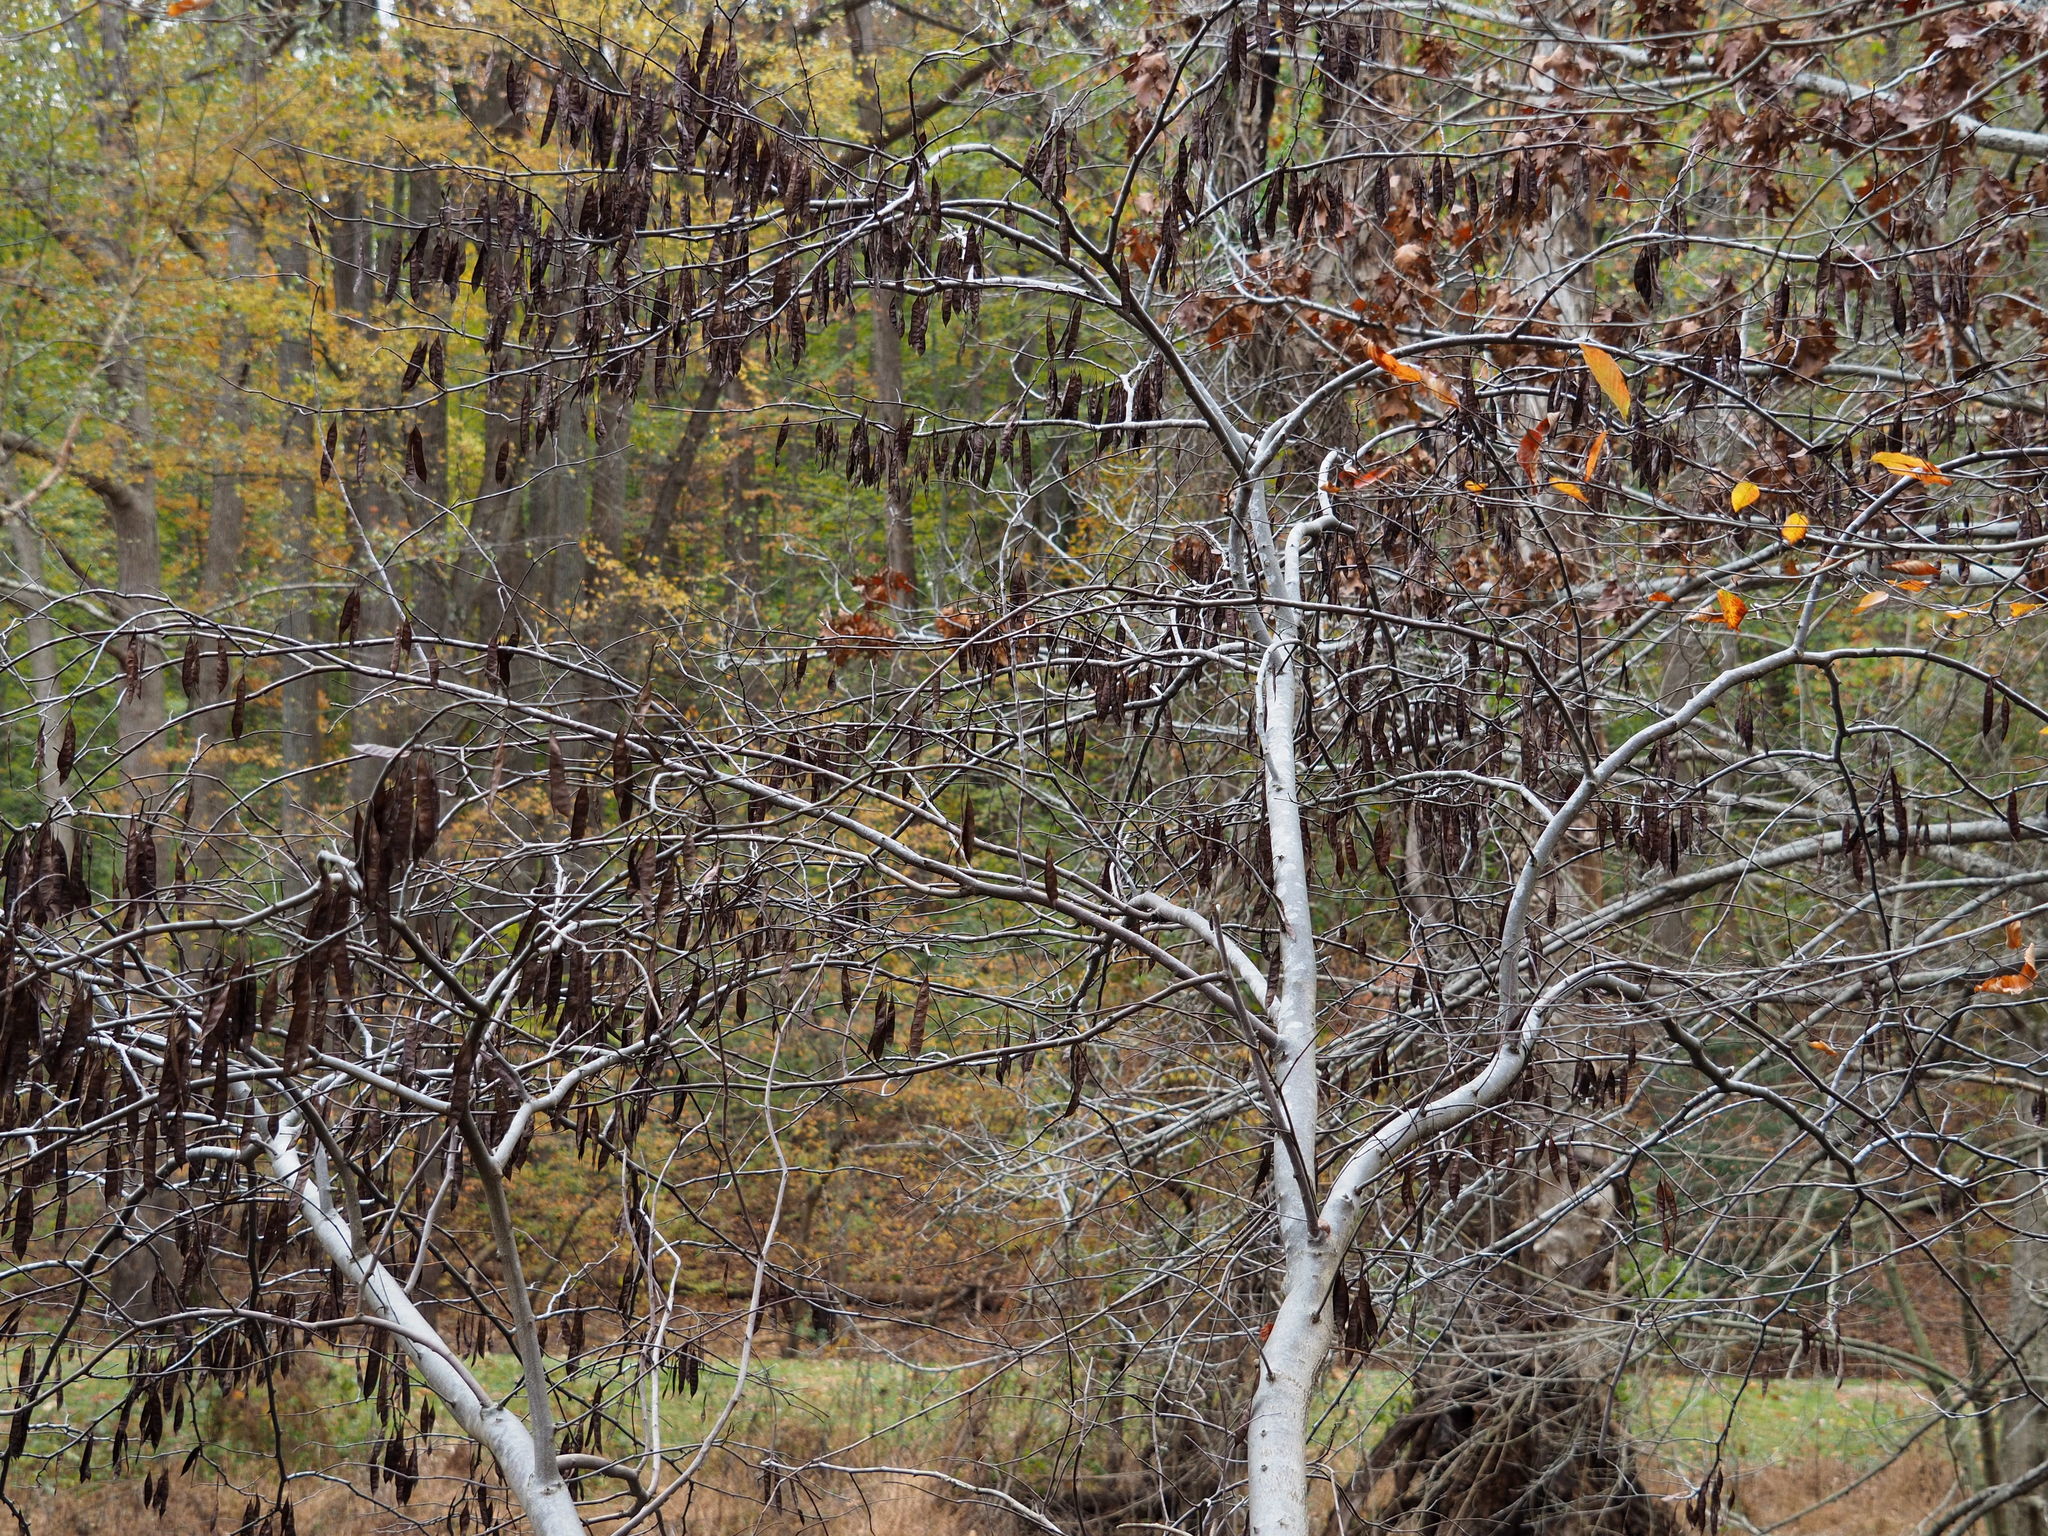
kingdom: Plantae
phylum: Tracheophyta
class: Magnoliopsida
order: Fabales
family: Fabaceae
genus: Cercis
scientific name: Cercis canadensis
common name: Eastern redbud
